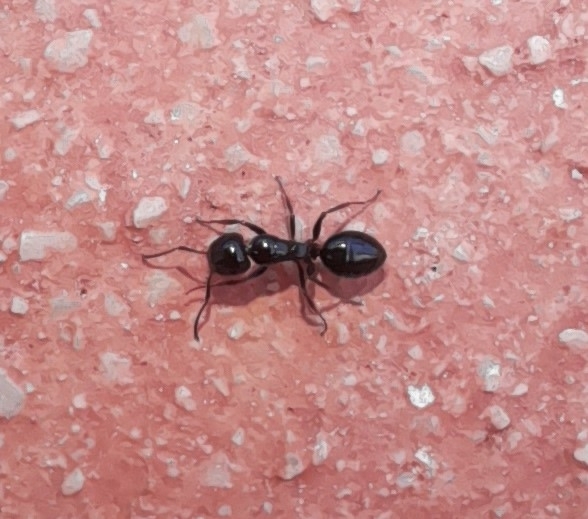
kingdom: Animalia
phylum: Arthropoda
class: Insecta
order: Hymenoptera
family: Formicidae
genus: Camponotus
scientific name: Camponotus piceus
